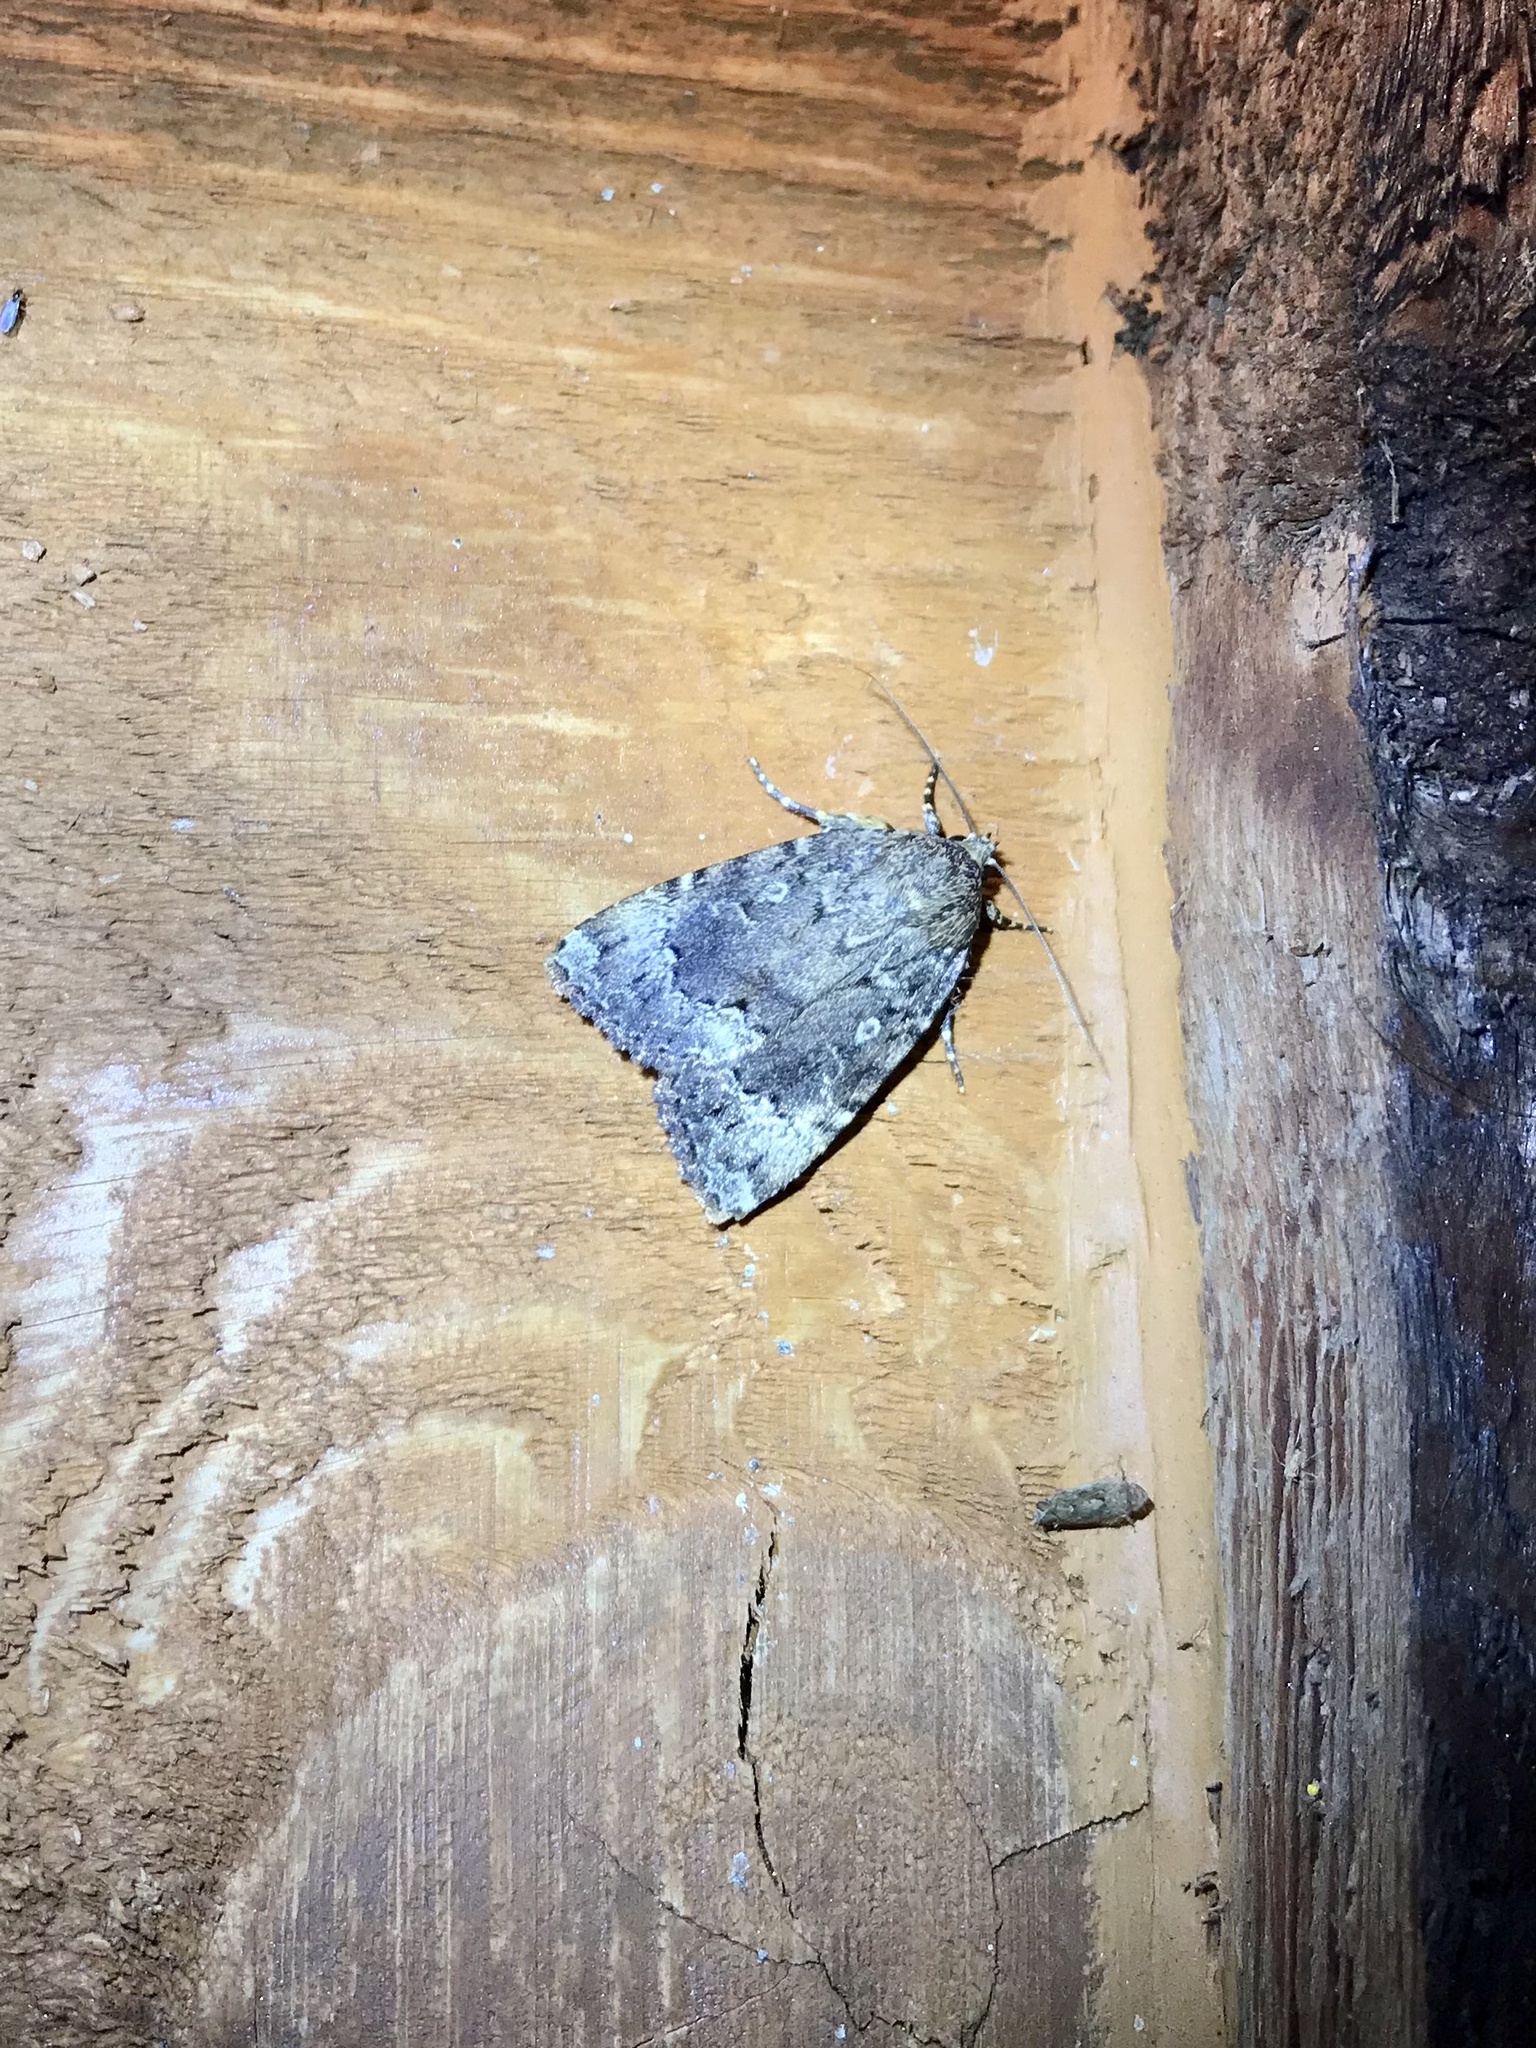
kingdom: Animalia
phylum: Arthropoda
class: Insecta
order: Lepidoptera
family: Noctuidae
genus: Amphipyra
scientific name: Amphipyra pyramidoides
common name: American copper underwing
